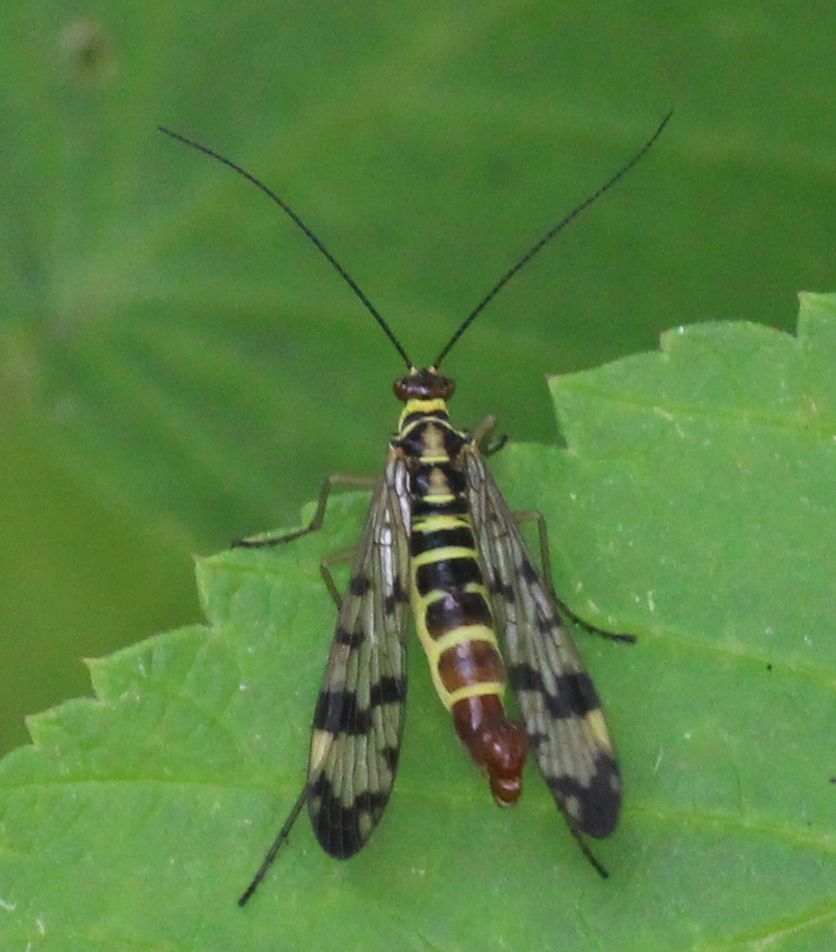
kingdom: Animalia
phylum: Arthropoda
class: Insecta
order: Mecoptera
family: Panorpidae
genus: Panorpa
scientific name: Panorpa communis
